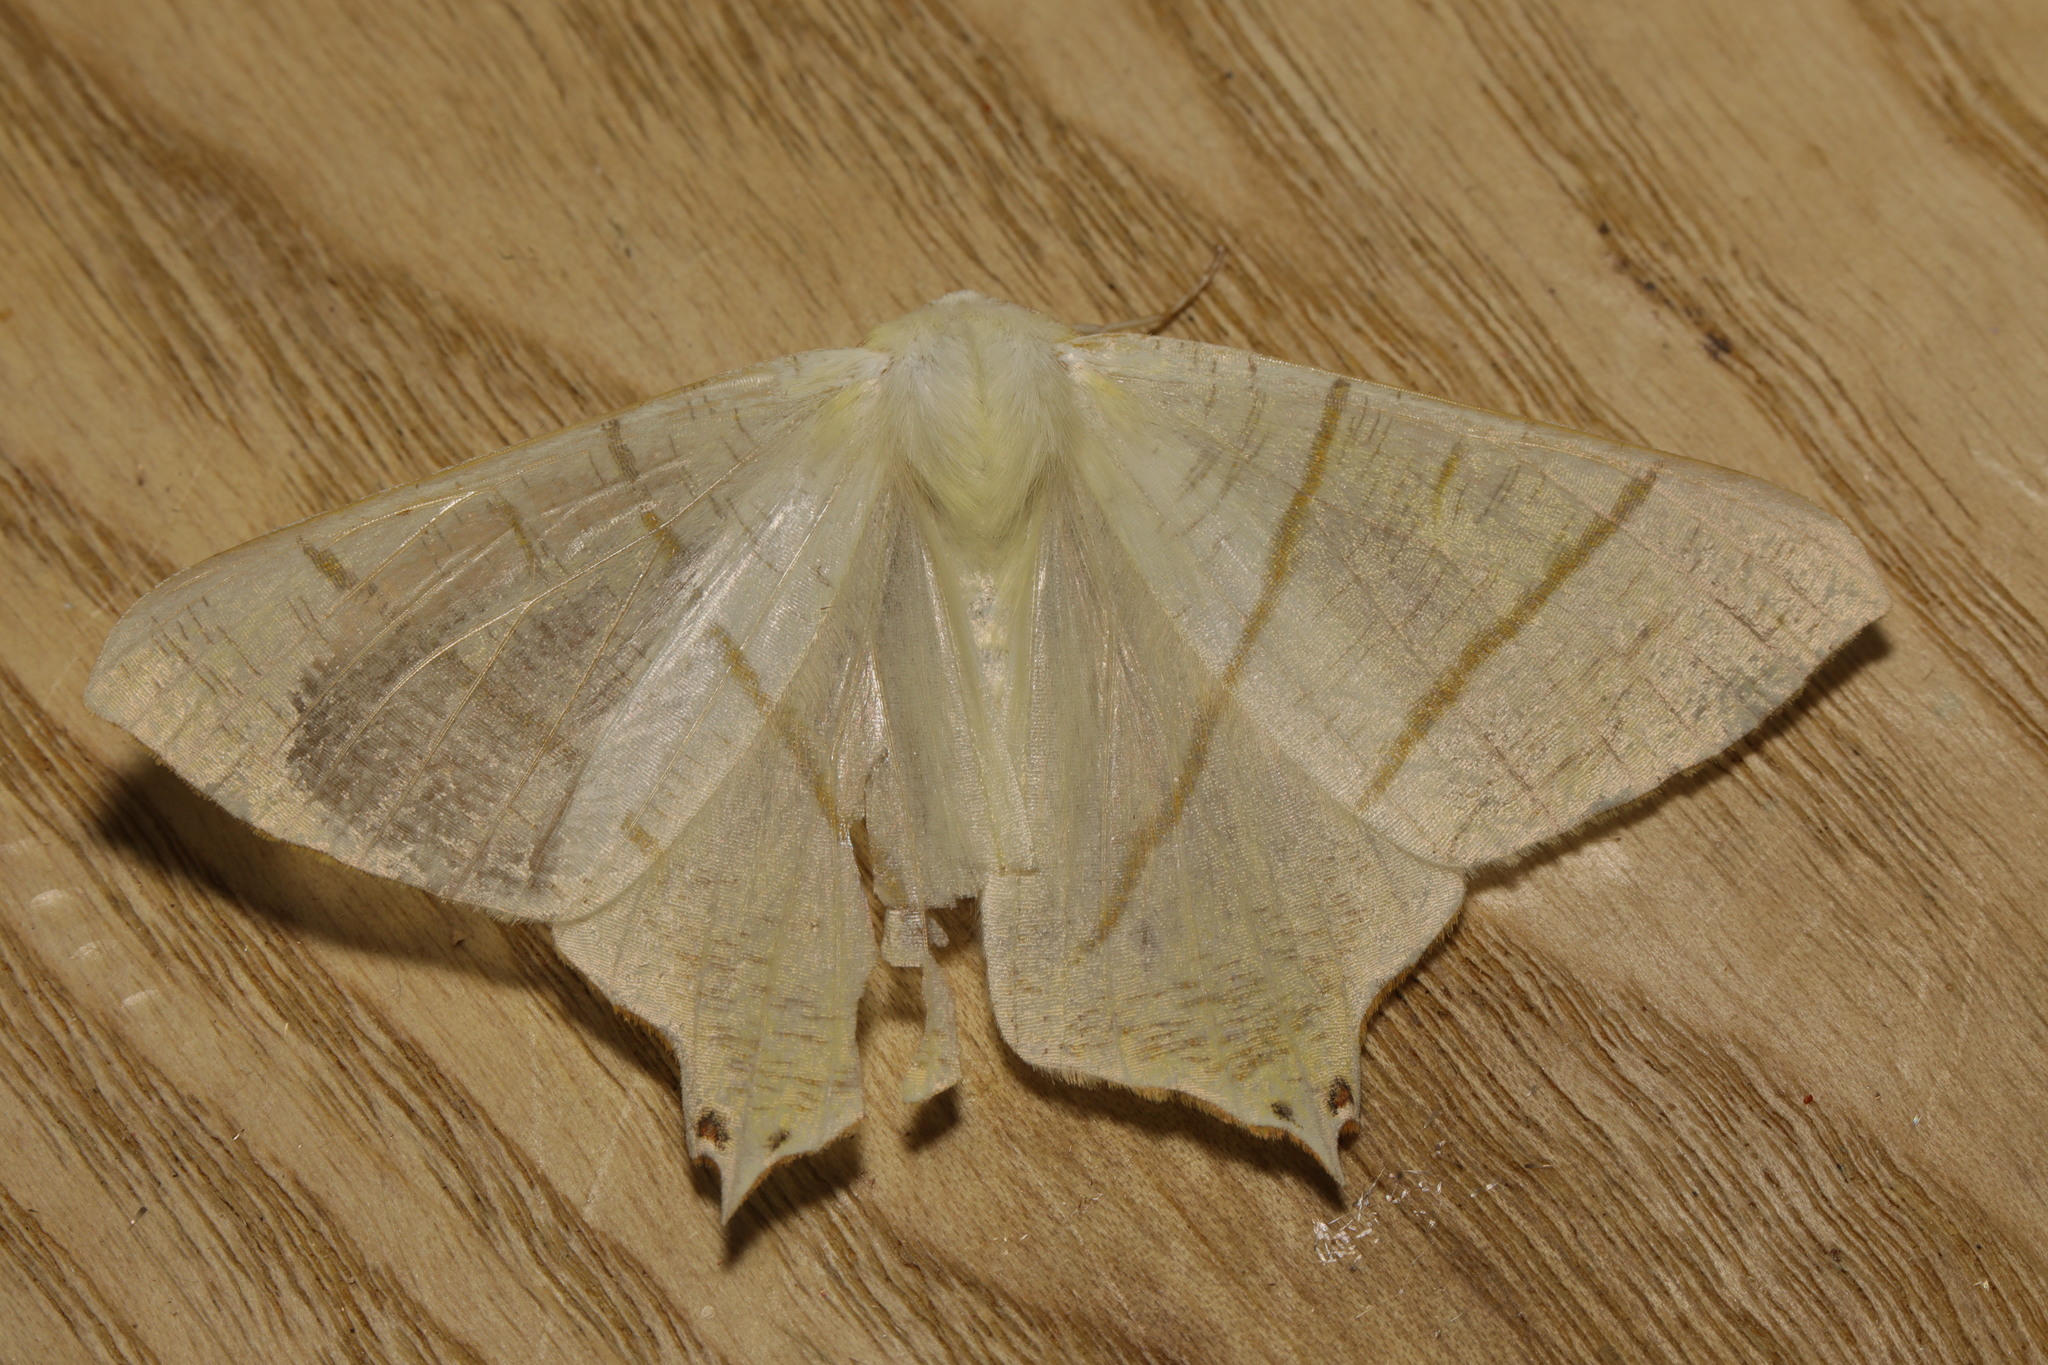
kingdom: Animalia
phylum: Arthropoda
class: Insecta
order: Lepidoptera
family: Geometridae
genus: Ourapteryx
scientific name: Ourapteryx sambucaria
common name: Swallow-tailed moth
